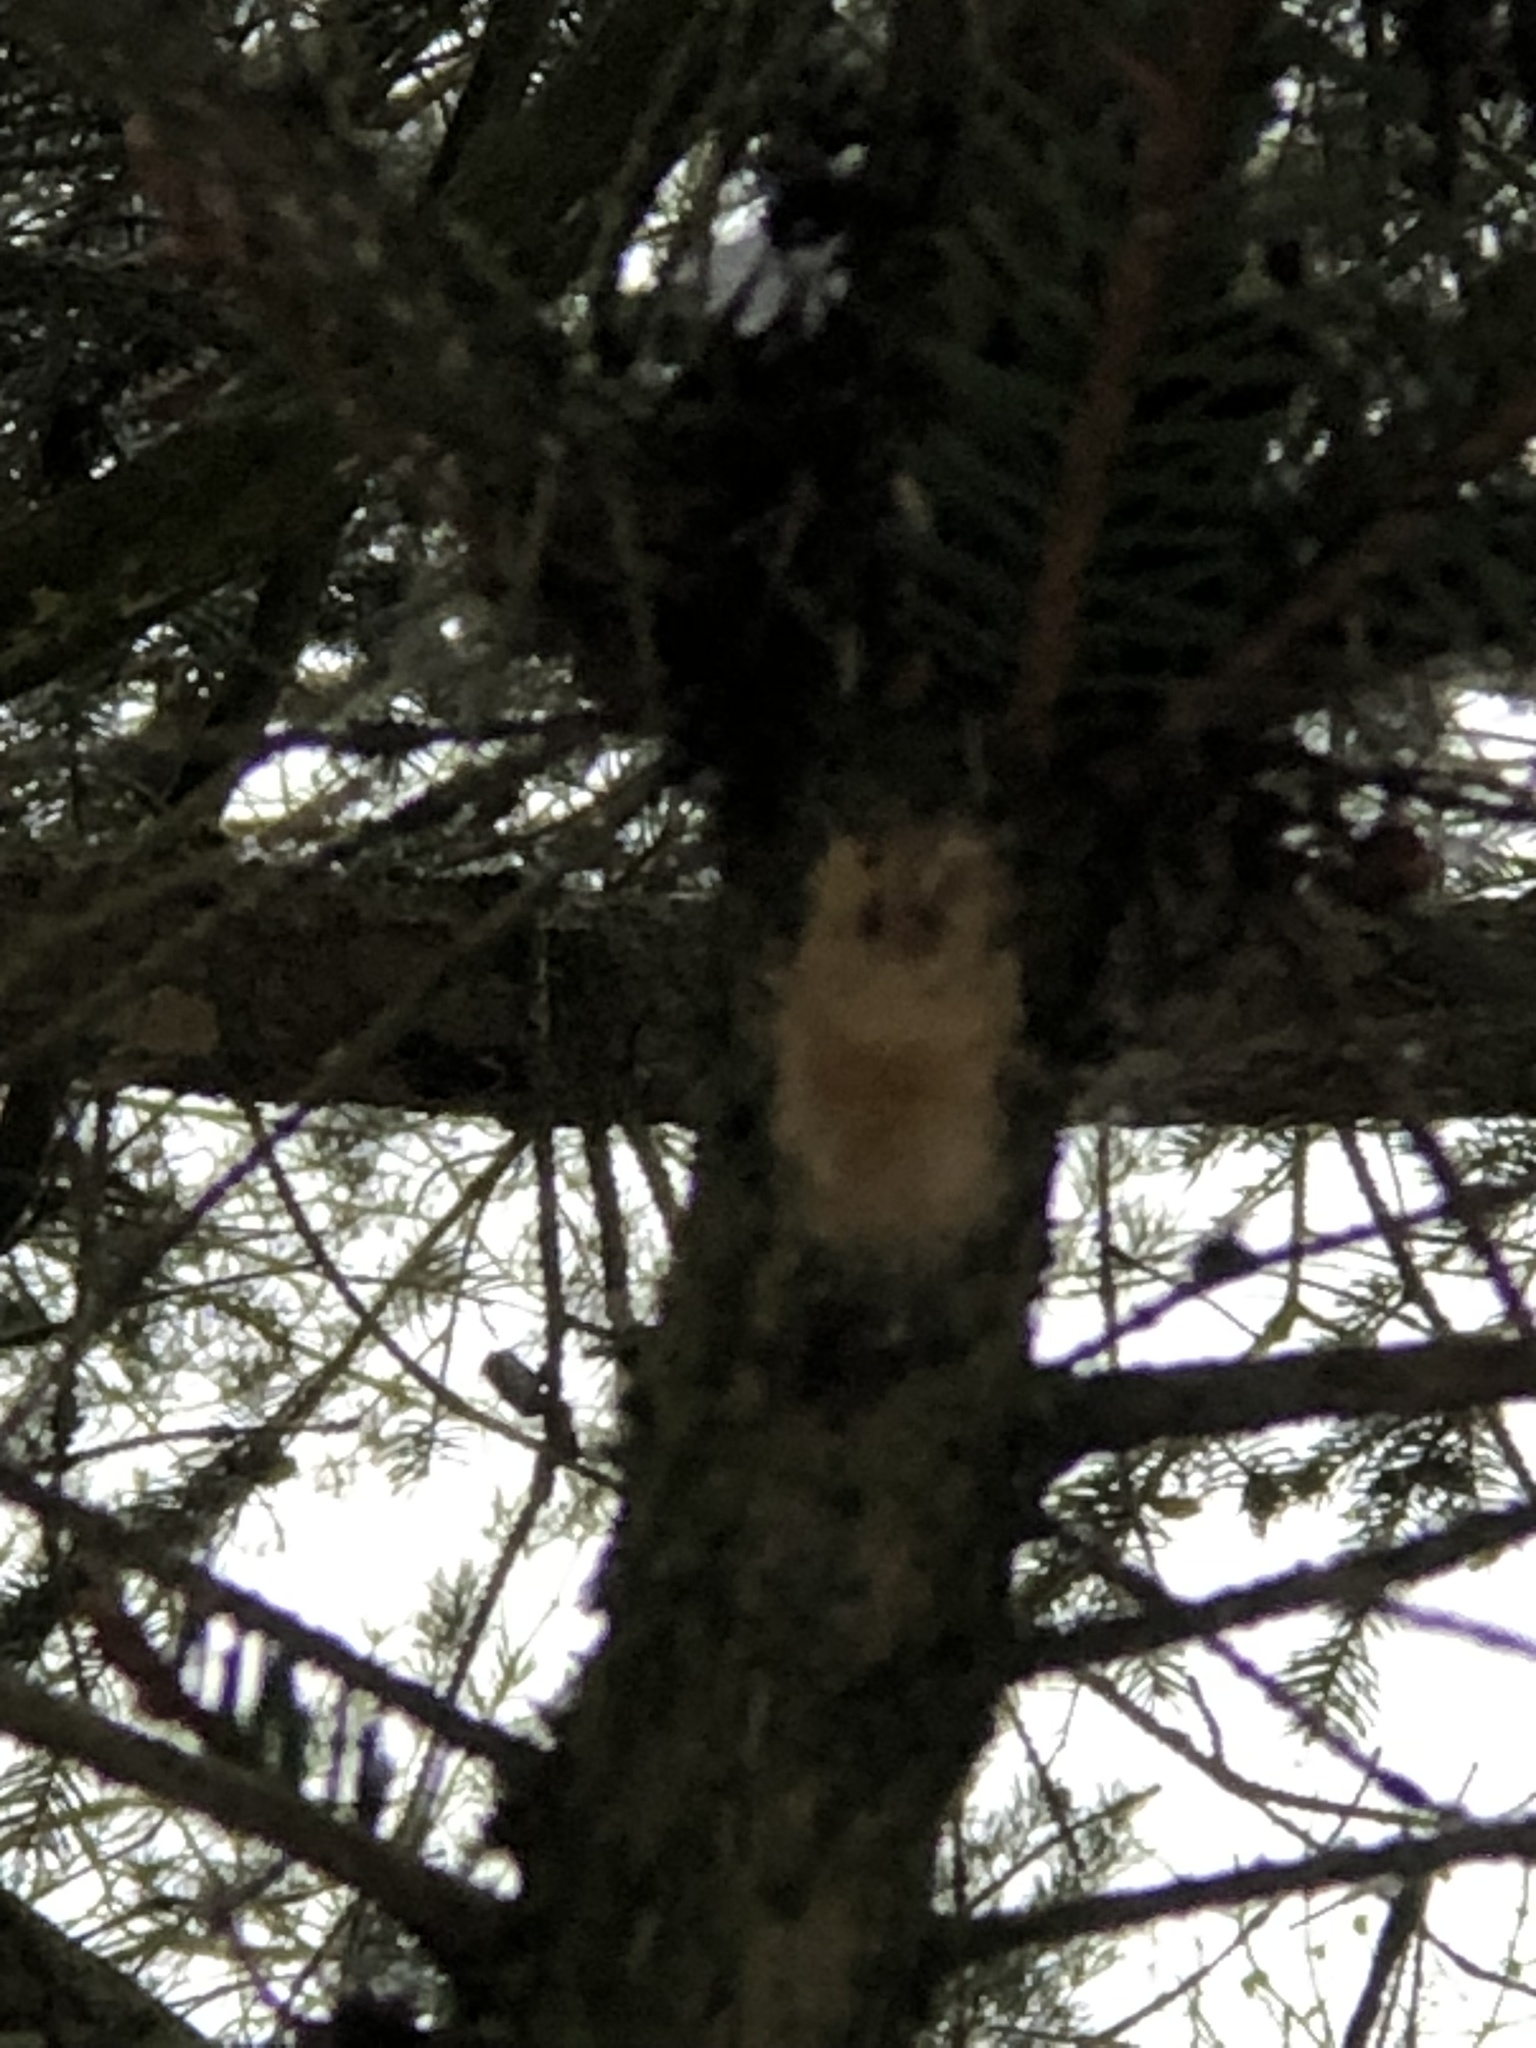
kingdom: Animalia
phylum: Arthropoda
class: Insecta
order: Lepidoptera
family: Erebidae
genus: Lymantria
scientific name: Lymantria dispar
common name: Gypsy moth
